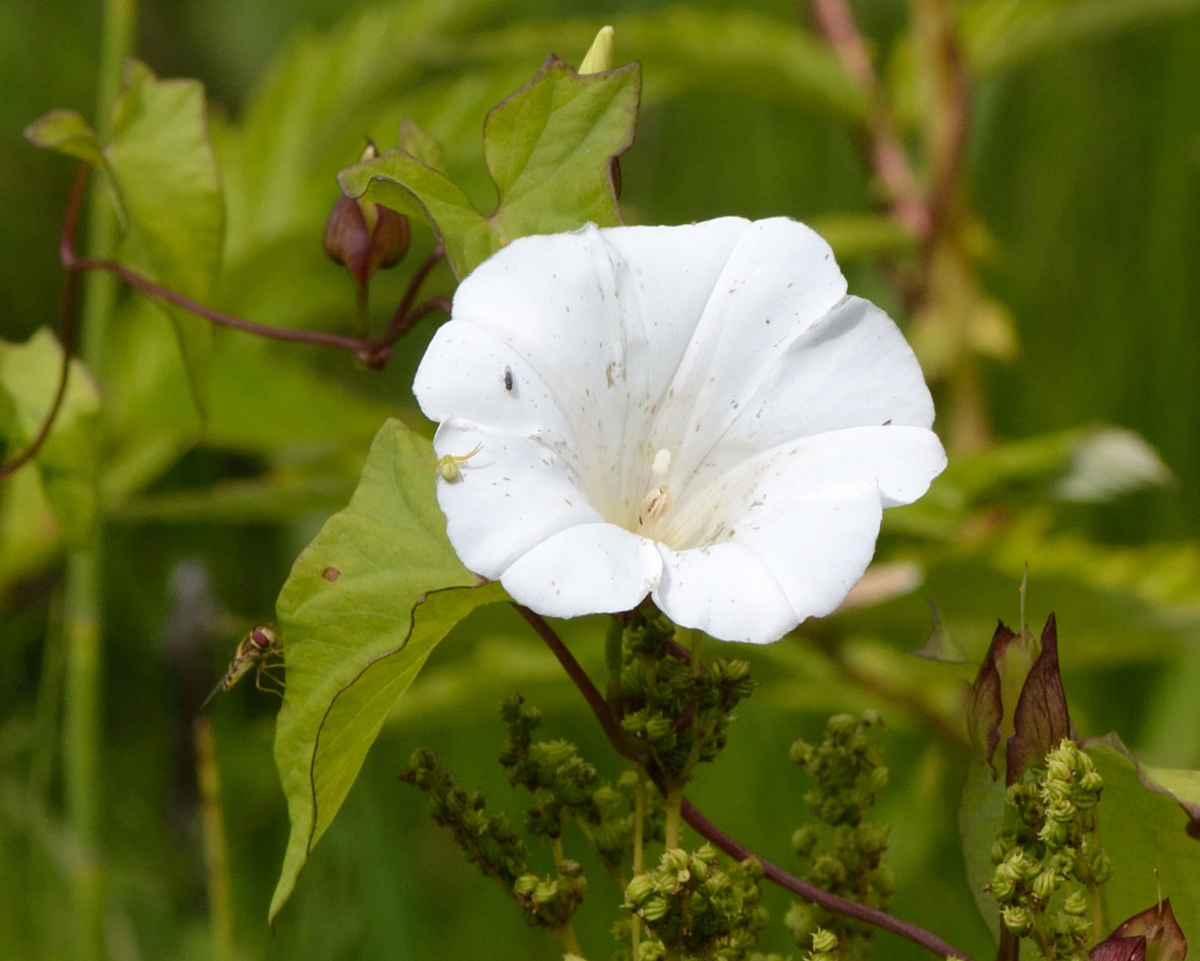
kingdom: Plantae
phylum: Tracheophyta
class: Magnoliopsida
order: Solanales
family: Convolvulaceae
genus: Calystegia
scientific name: Calystegia sepium
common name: Hedge bindweed
